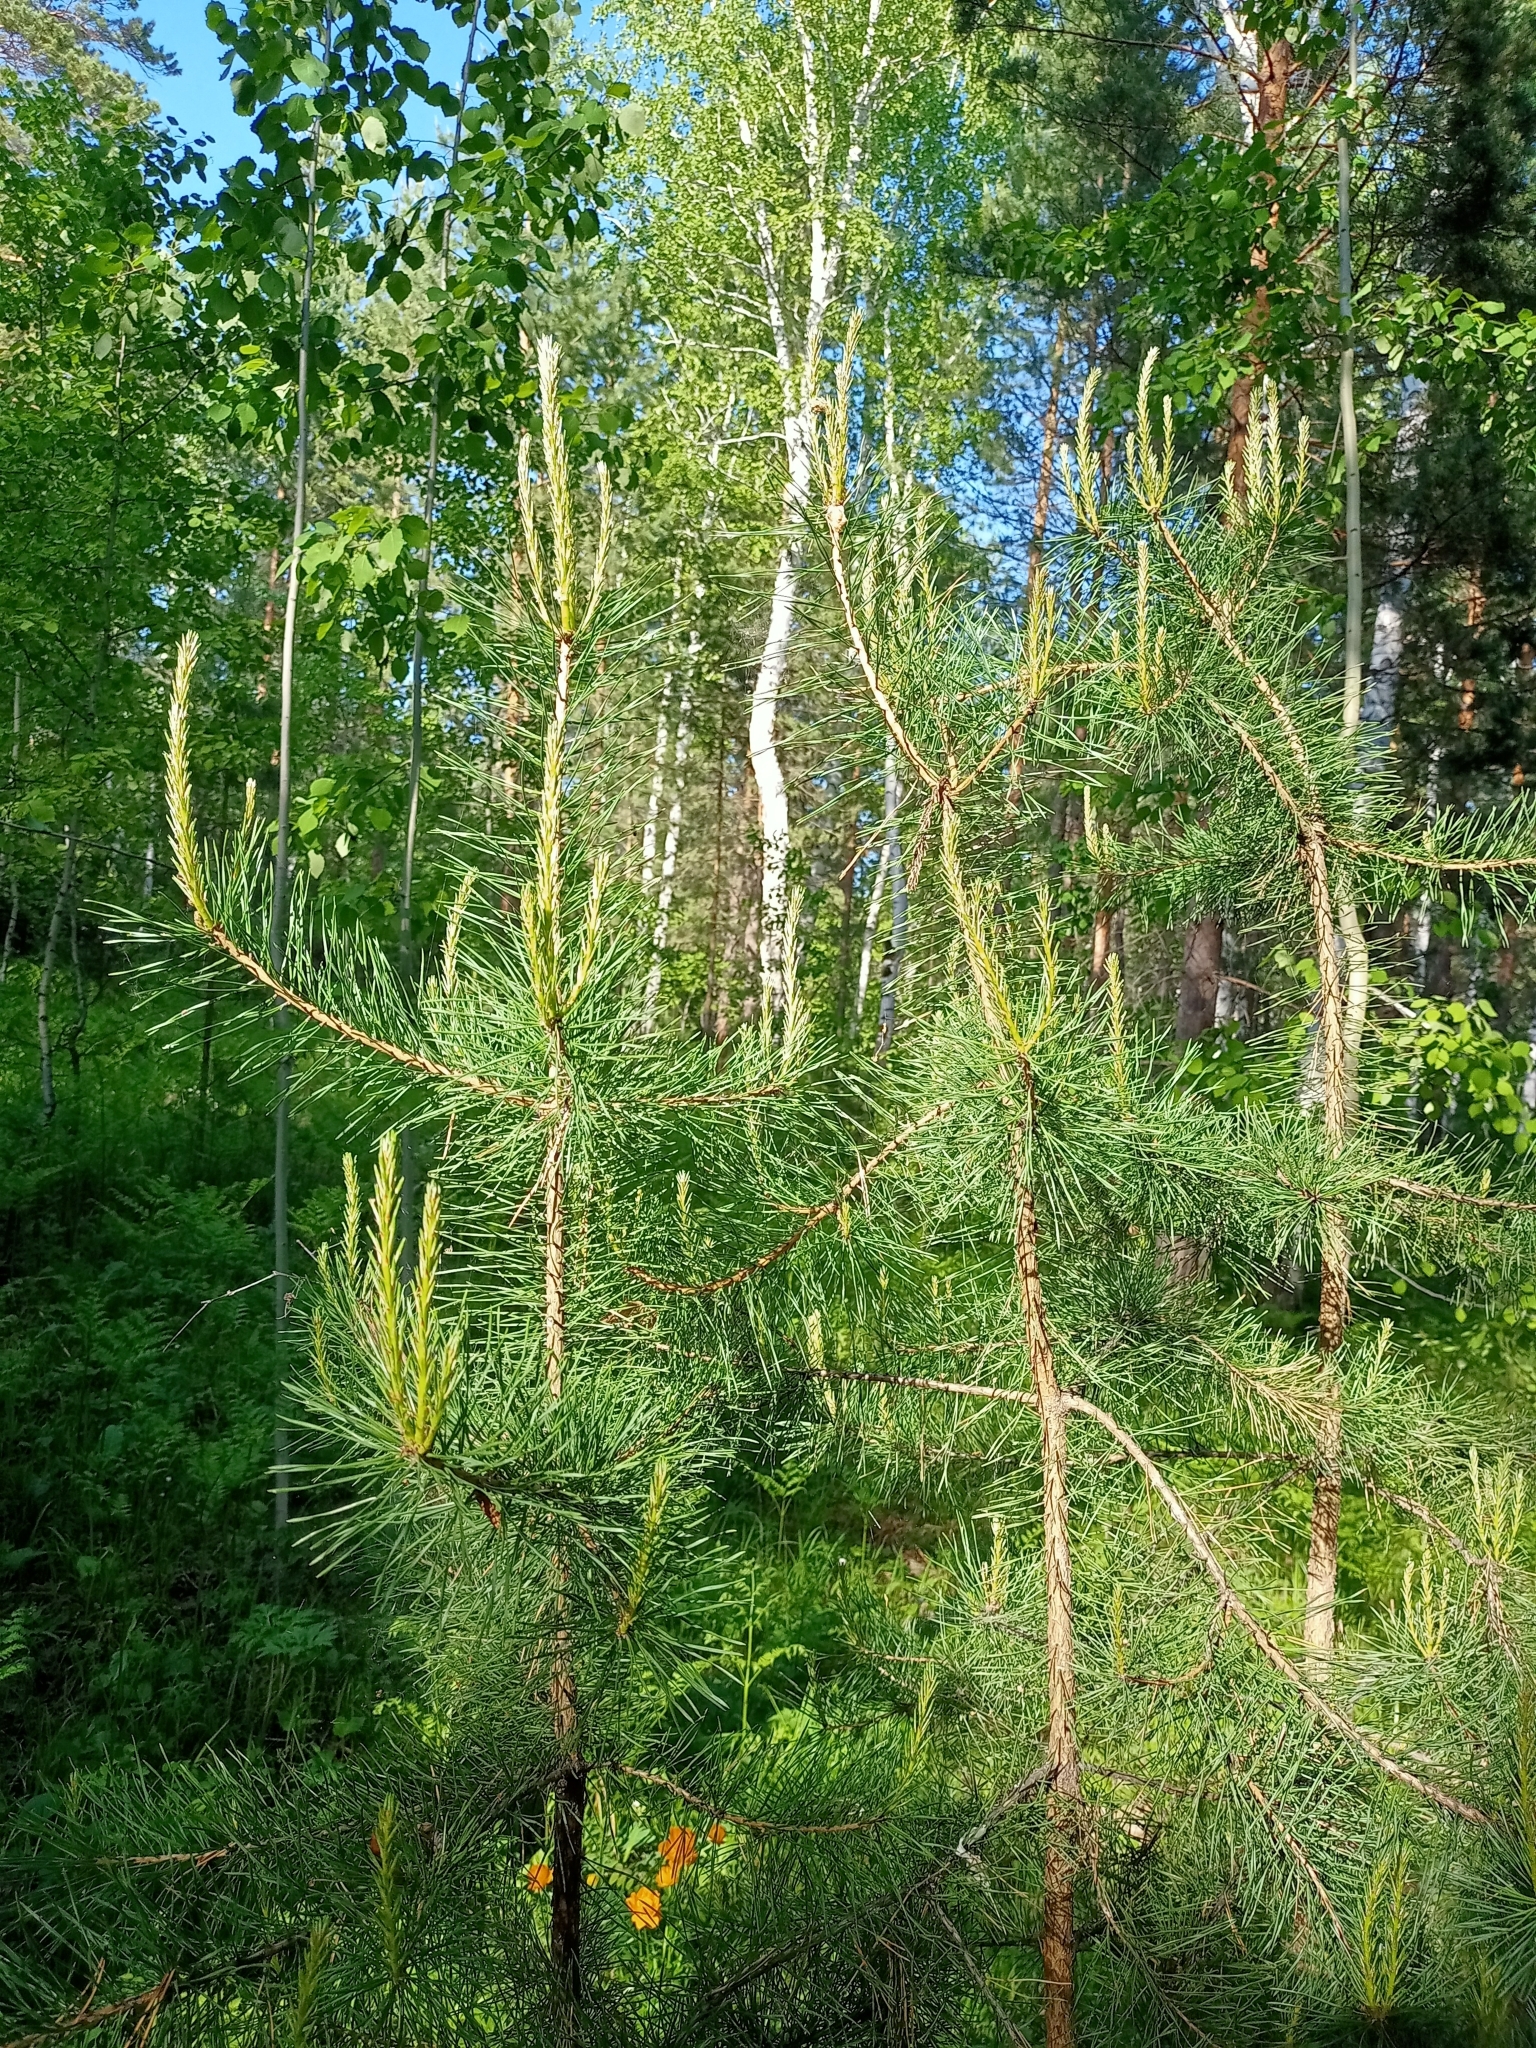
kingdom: Plantae
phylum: Tracheophyta
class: Pinopsida
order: Pinales
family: Pinaceae
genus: Pinus
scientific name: Pinus sylvestris
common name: Scots pine
